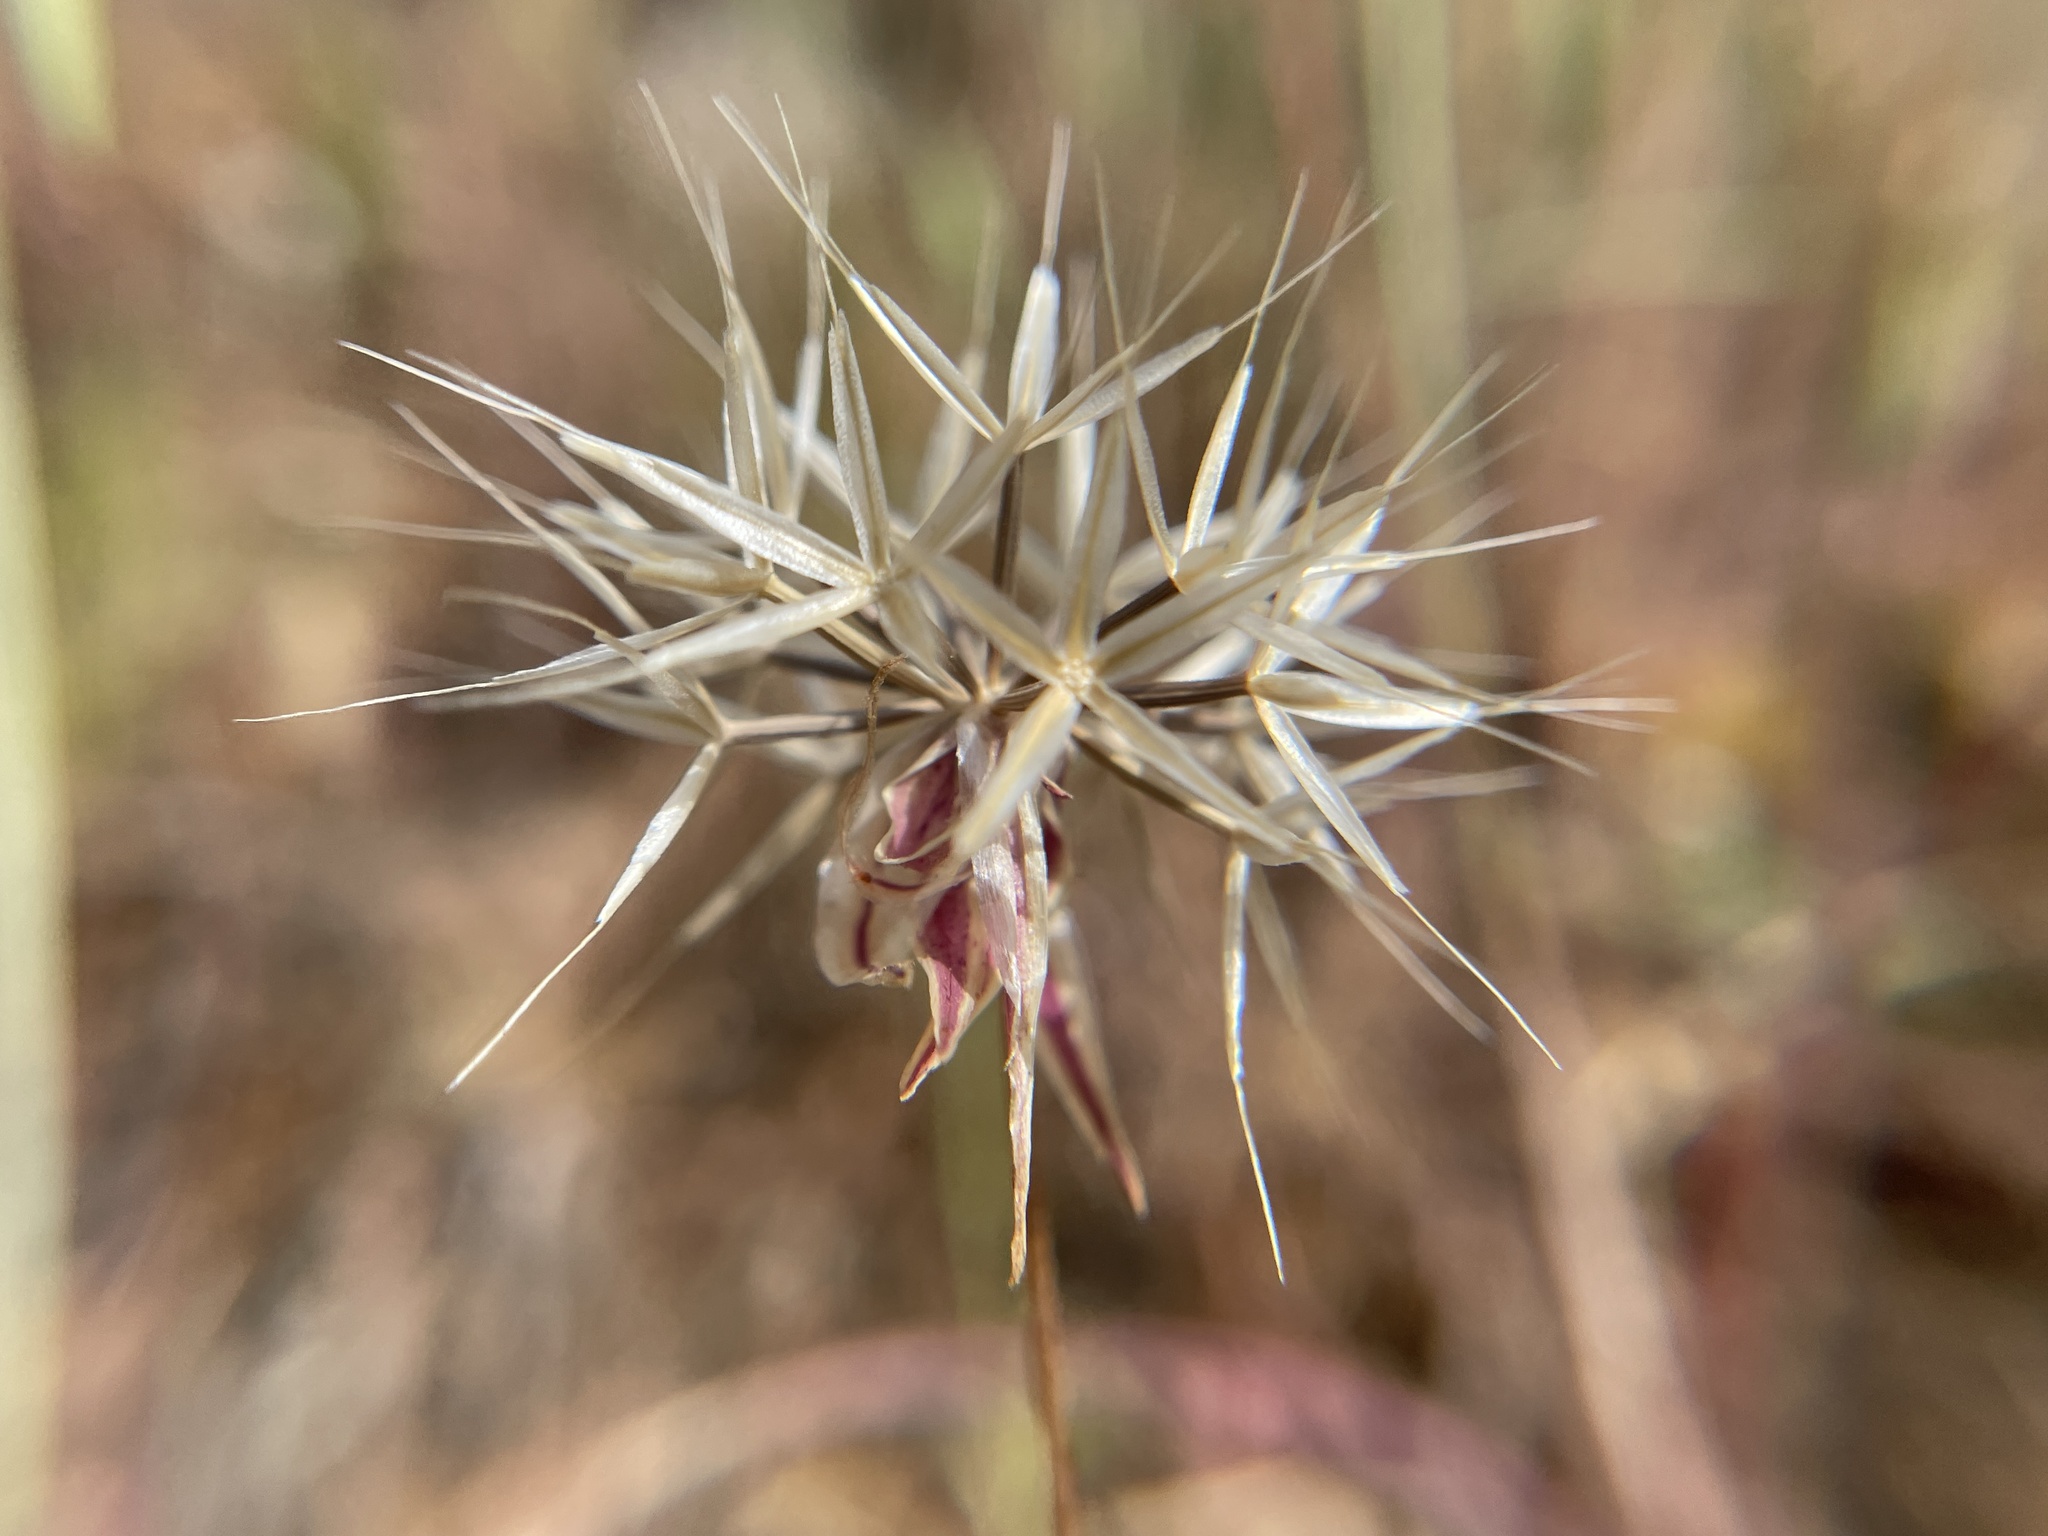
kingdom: Plantae
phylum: Tracheophyta
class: Magnoliopsida
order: Asterales
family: Asteraceae
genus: Microseris
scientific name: Microseris lindleyi
